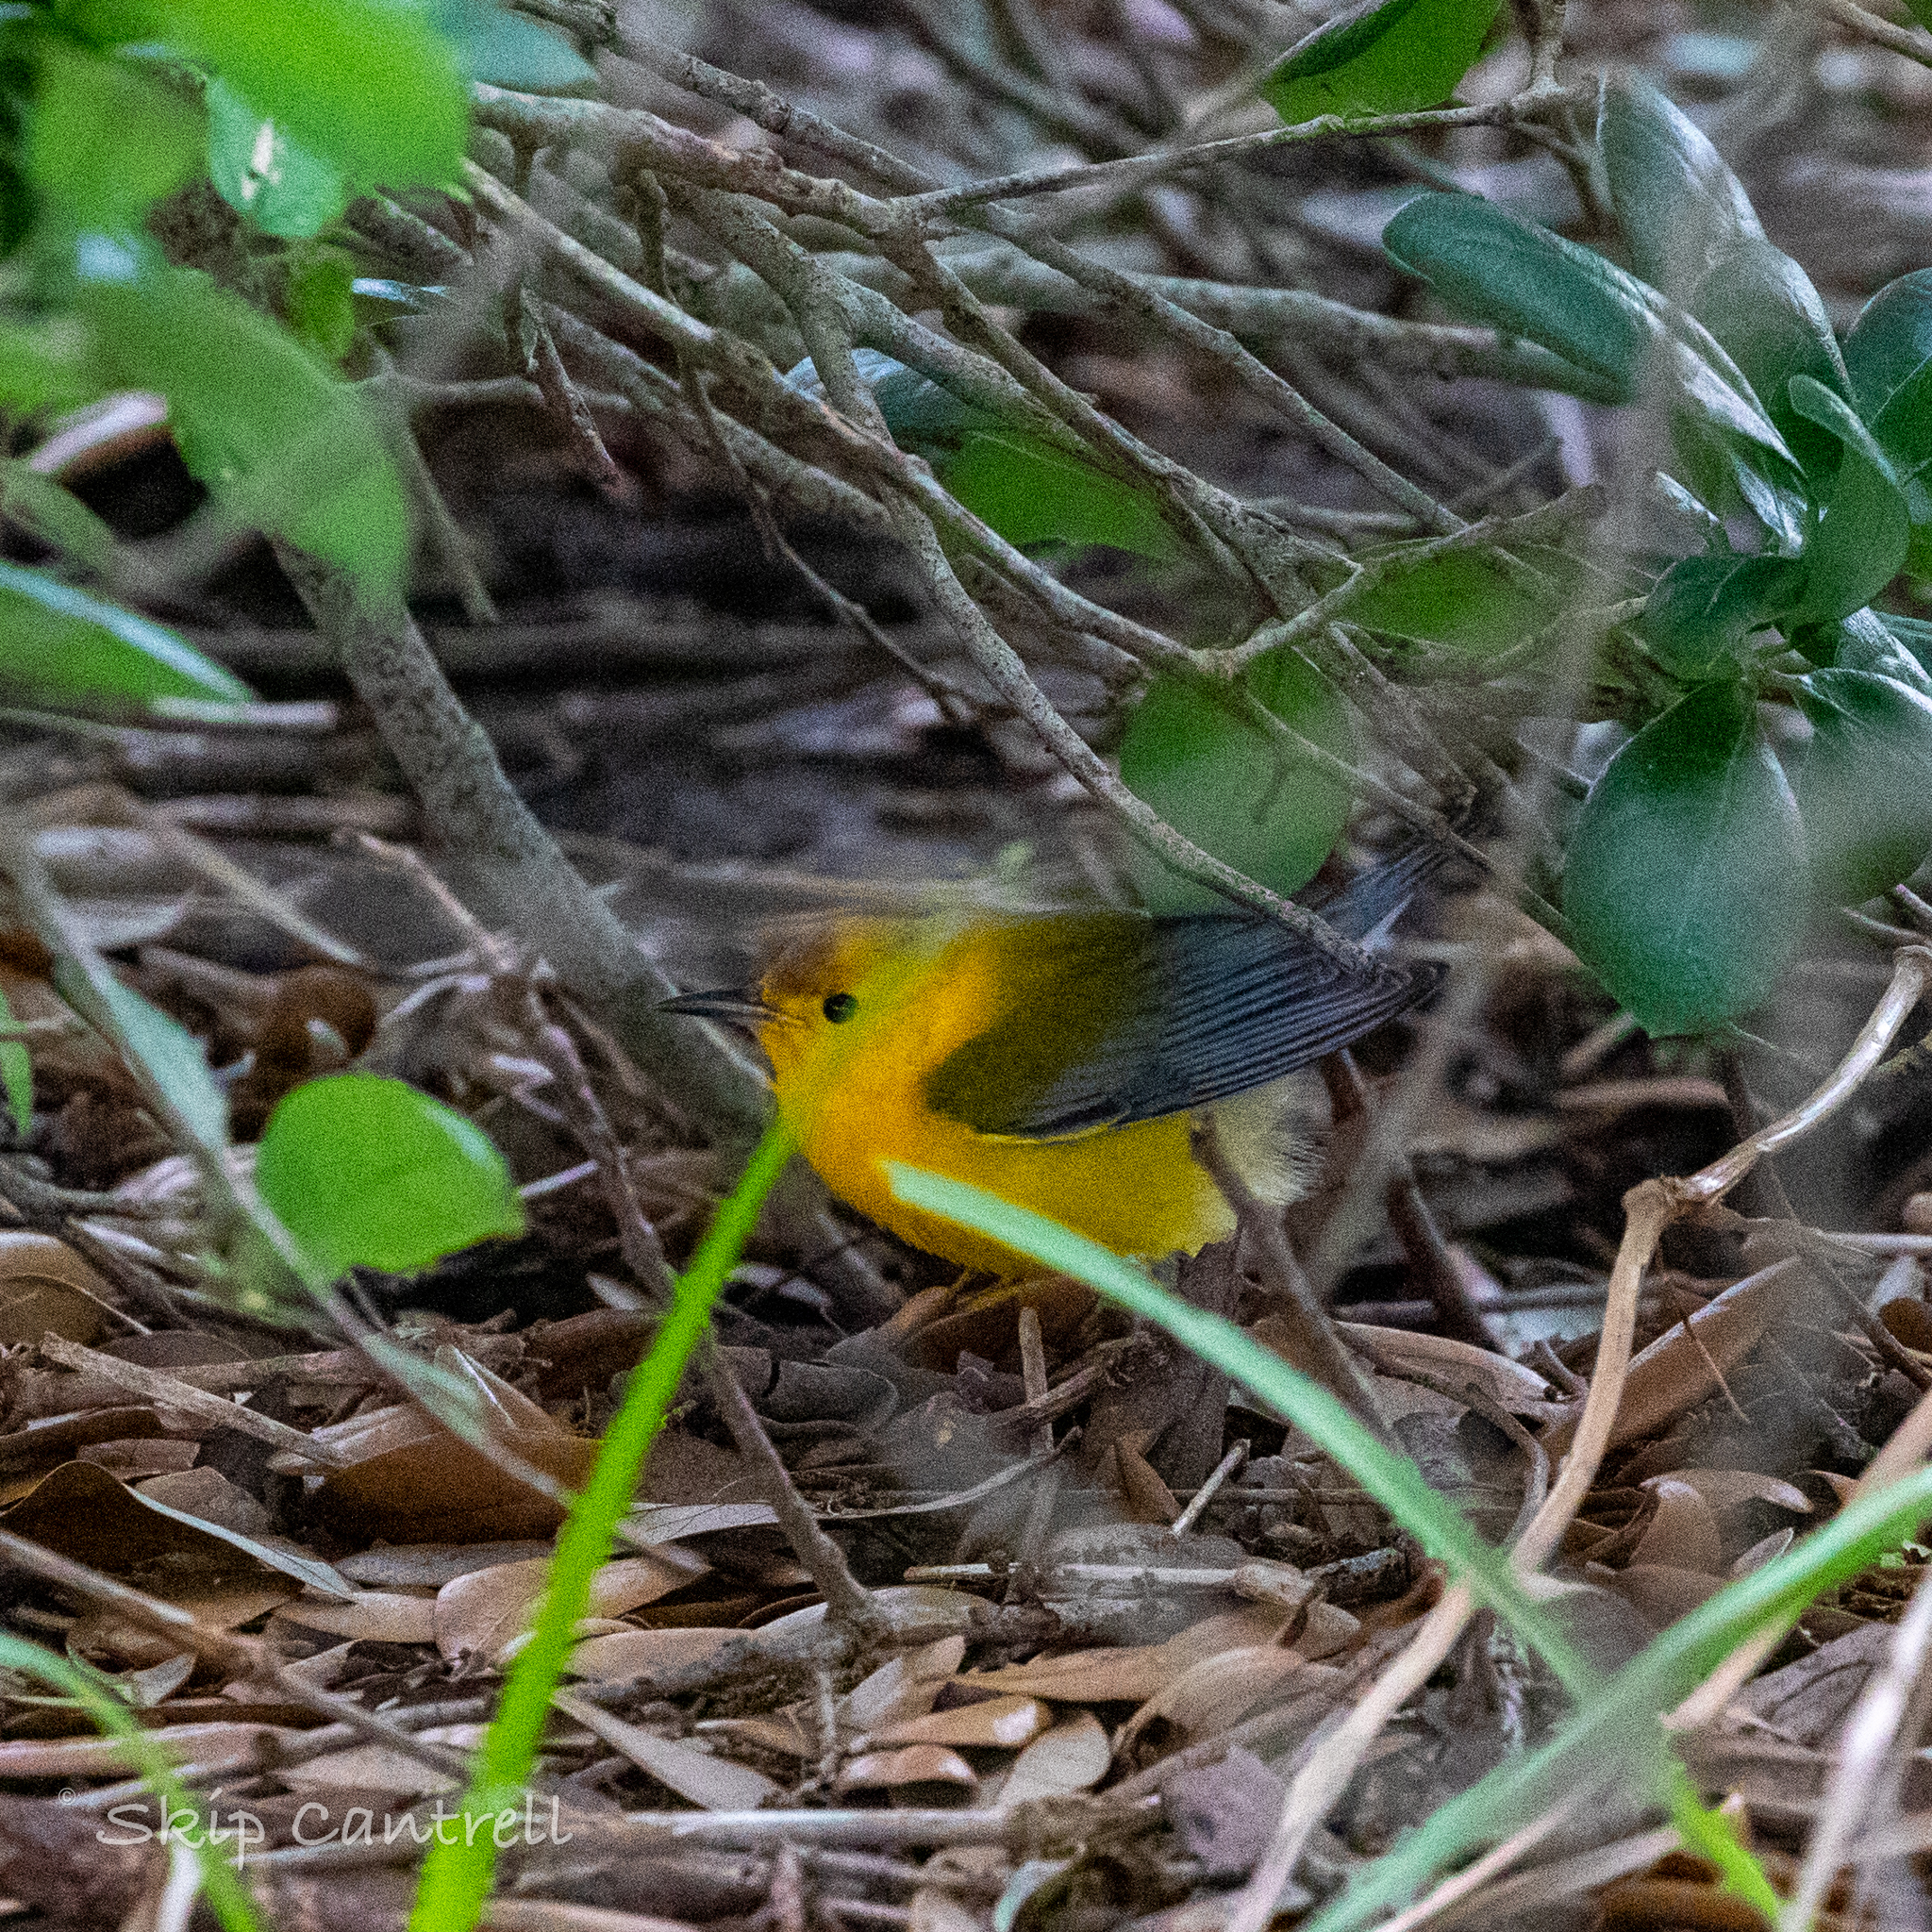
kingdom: Animalia
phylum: Chordata
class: Aves
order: Passeriformes
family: Parulidae
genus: Protonotaria
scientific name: Protonotaria citrea
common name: Prothonotary warbler
